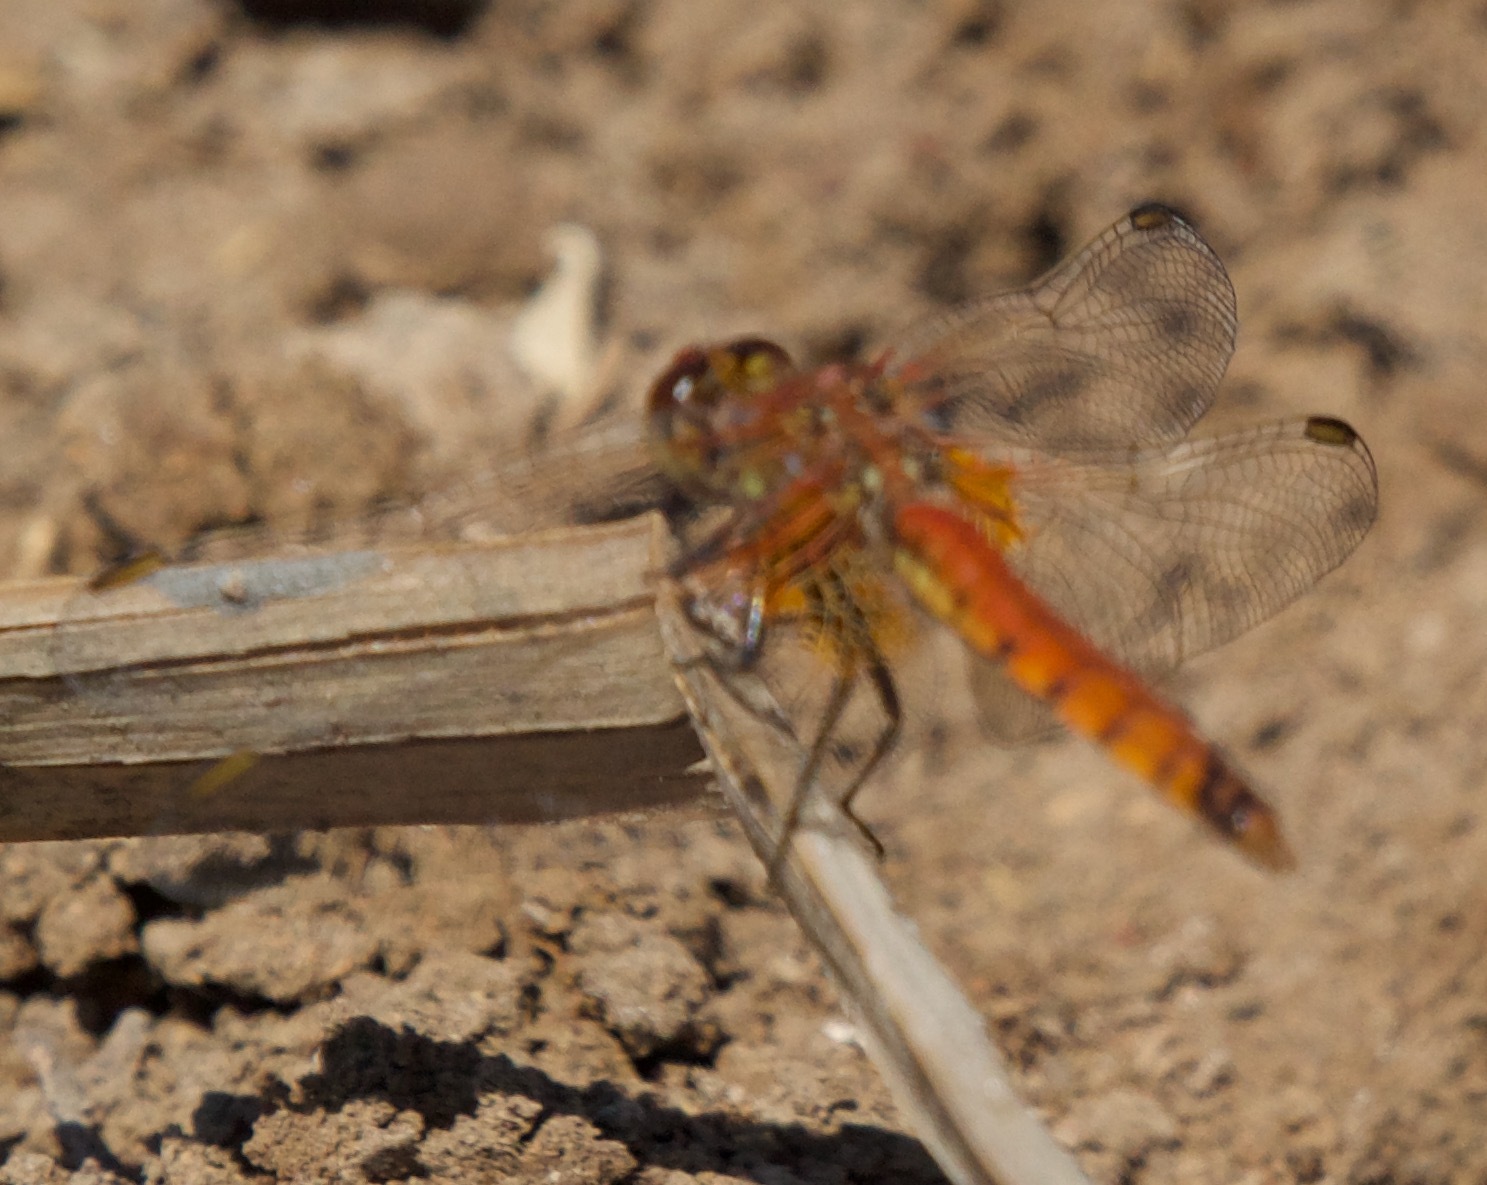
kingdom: Animalia
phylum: Arthropoda
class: Insecta
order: Odonata
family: Libellulidae
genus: Erythrodiplax
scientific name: Erythrodiplax corallina
